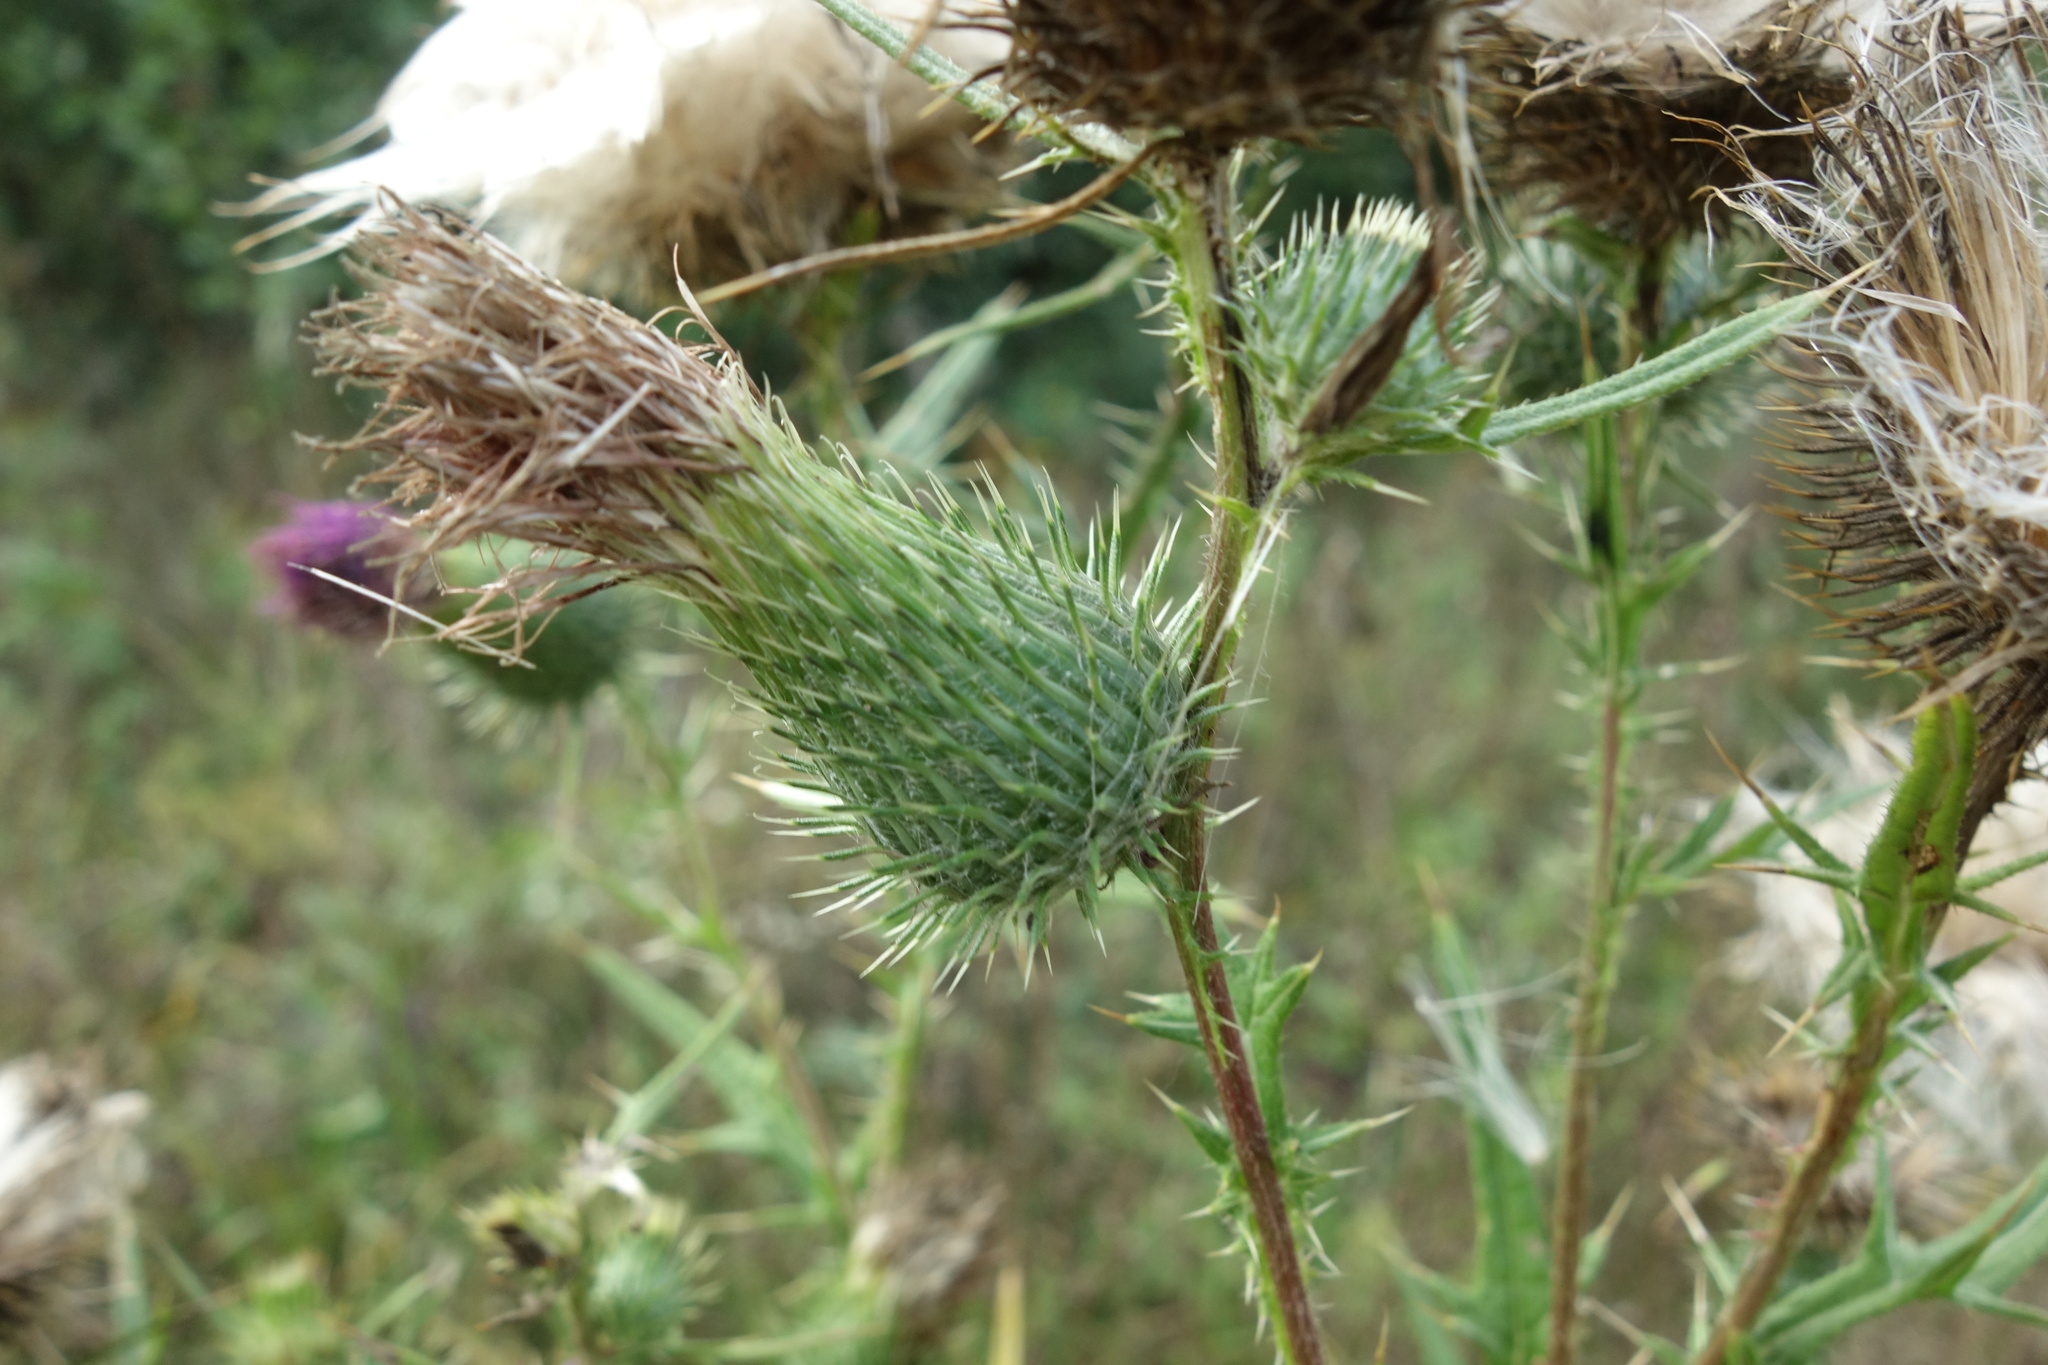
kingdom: Plantae
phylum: Tracheophyta
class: Magnoliopsida
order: Asterales
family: Asteraceae
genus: Cirsium
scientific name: Cirsium vulgare
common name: Bull thistle
